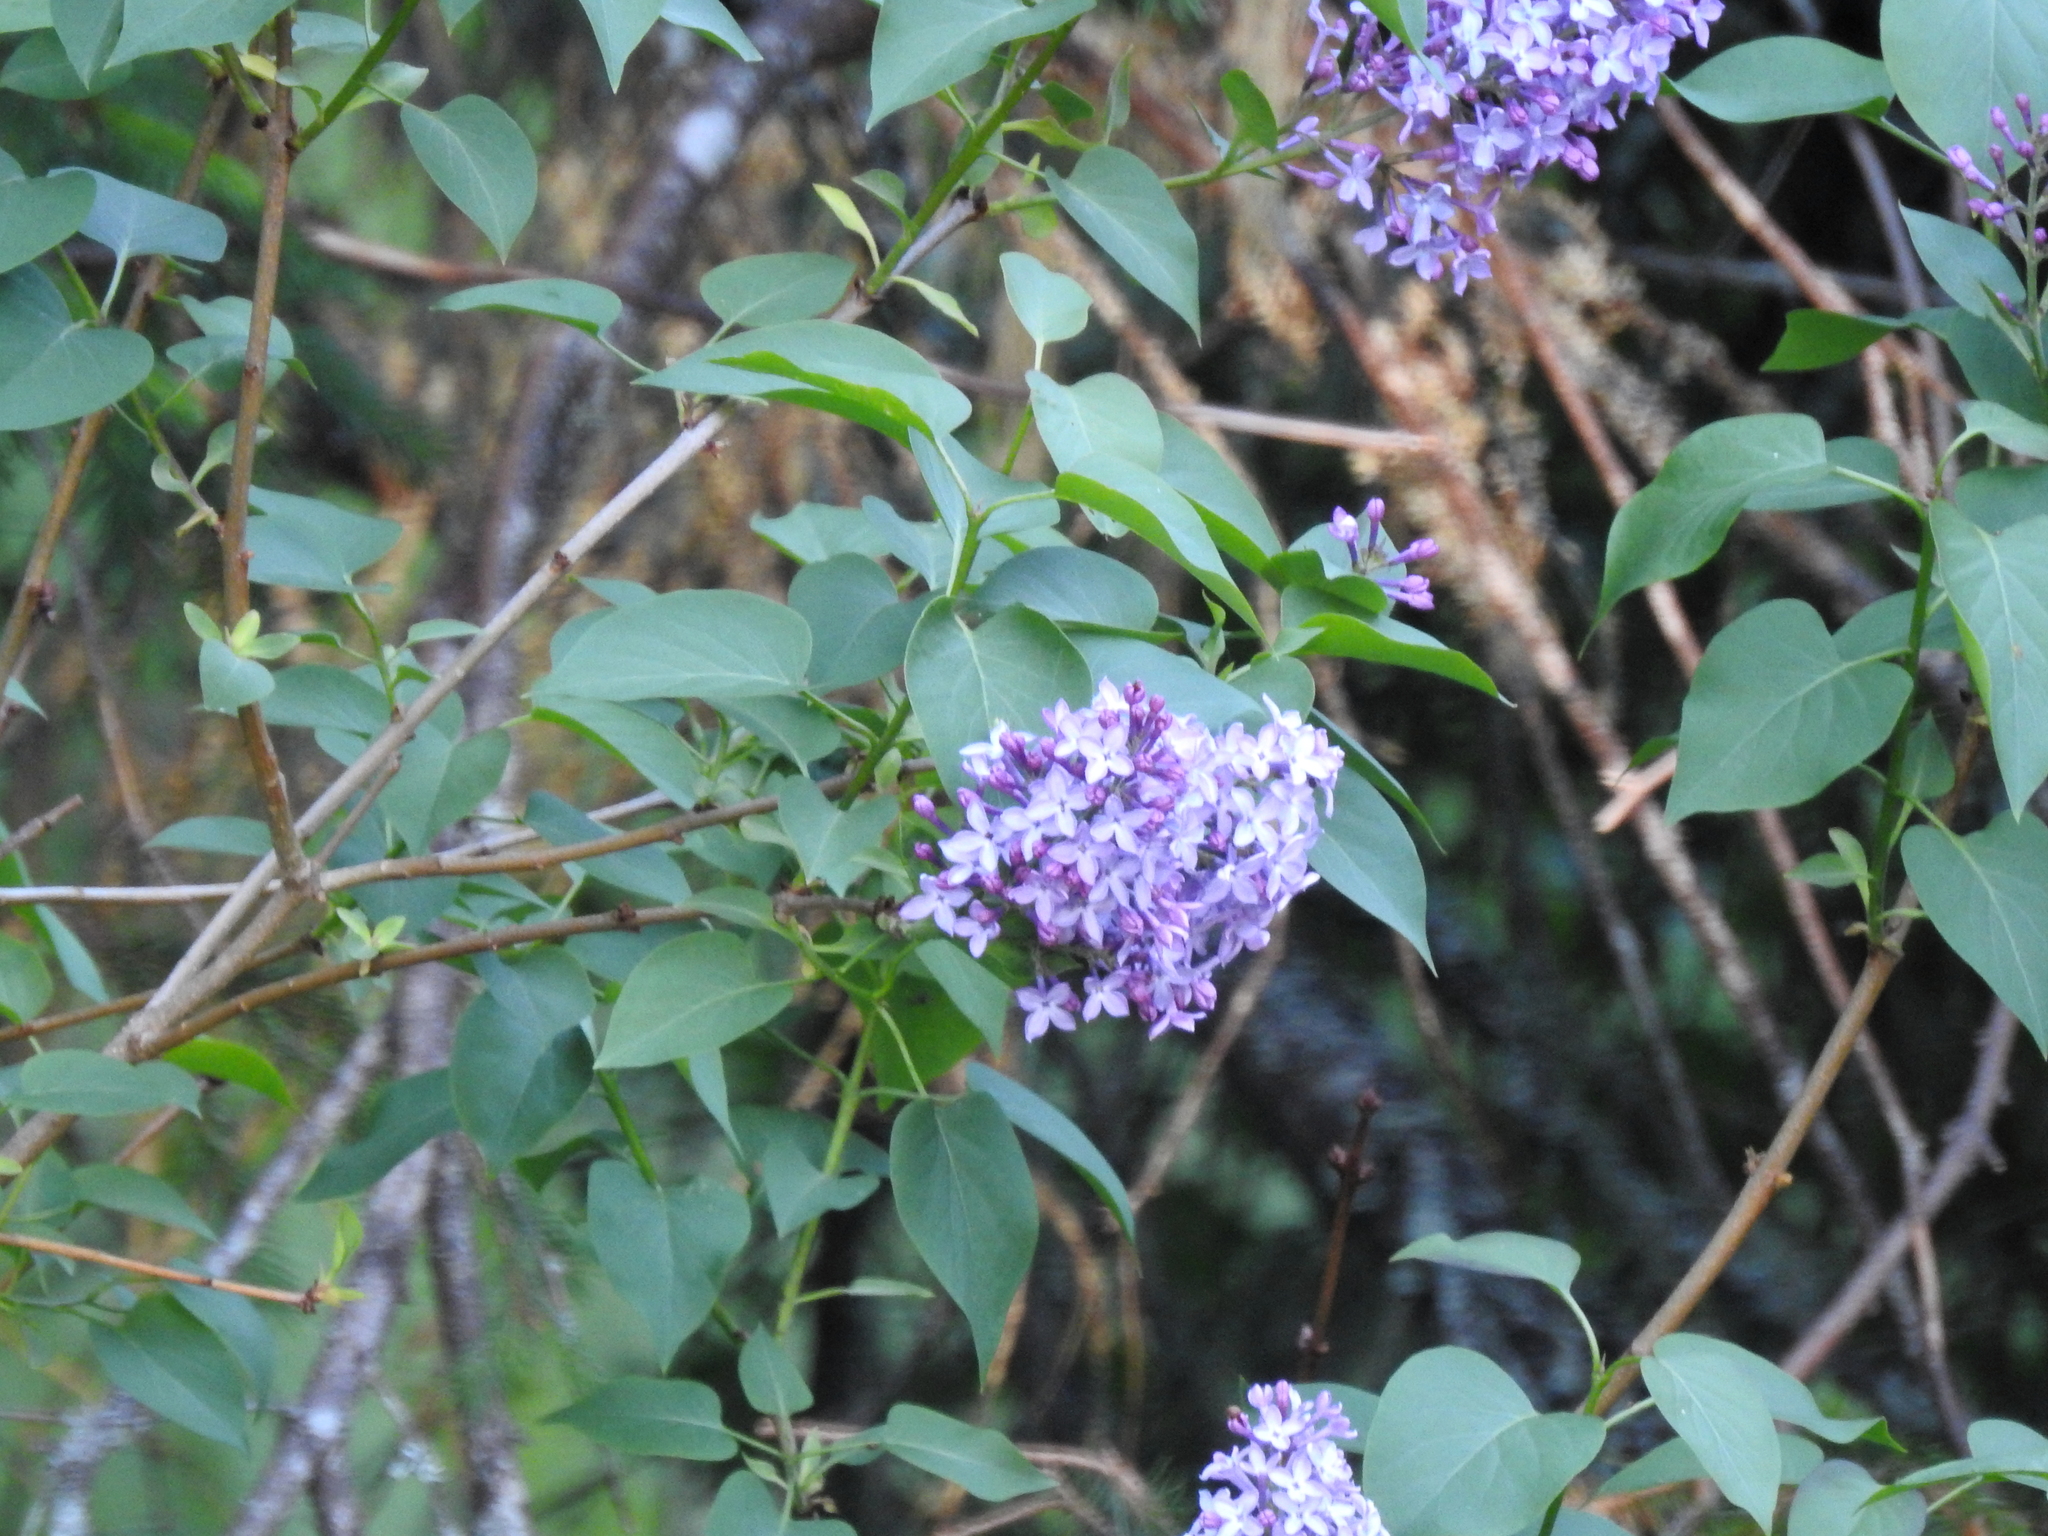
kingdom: Plantae
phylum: Tracheophyta
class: Magnoliopsida
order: Lamiales
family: Oleaceae
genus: Syringa
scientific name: Syringa vulgaris
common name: Common lilac
